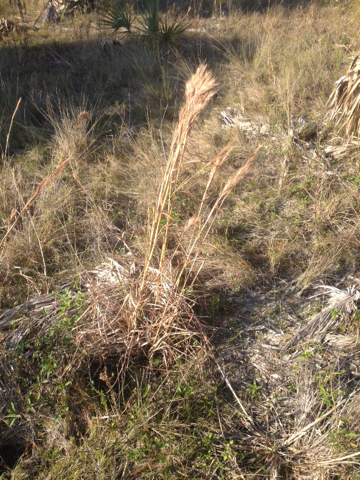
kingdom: Plantae
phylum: Tracheophyta
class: Liliopsida
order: Poales
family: Poaceae
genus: Andropogon
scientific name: Andropogon tenuispatheus
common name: Bushy bluestem
